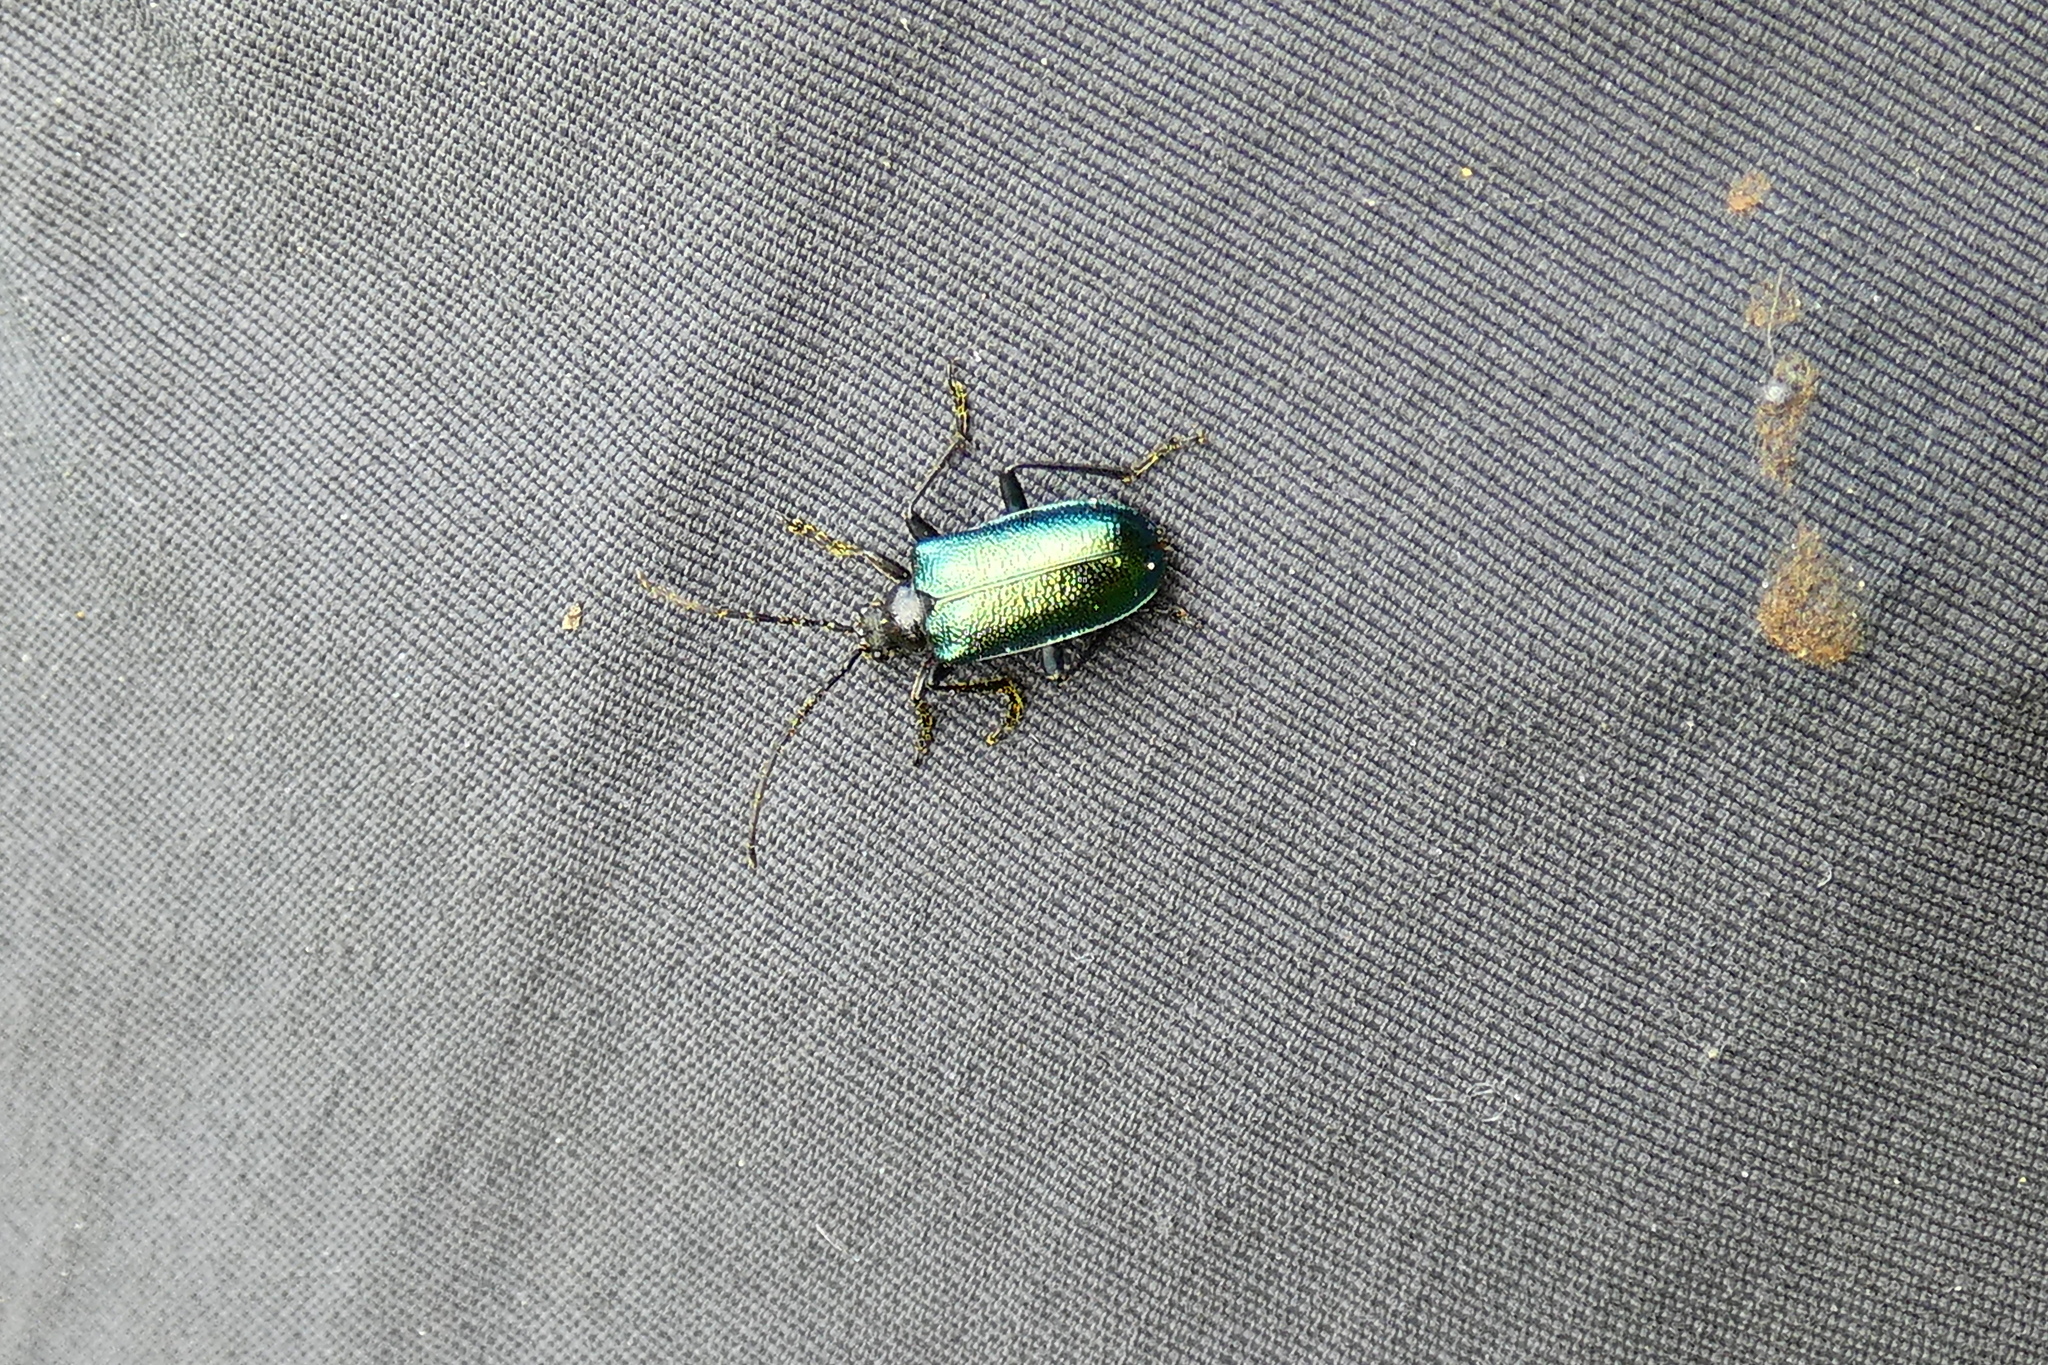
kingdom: Animalia
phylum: Arthropoda
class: Insecta
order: Coleoptera
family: Cerambycidae
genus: Gaurotes
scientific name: Gaurotes virginea
